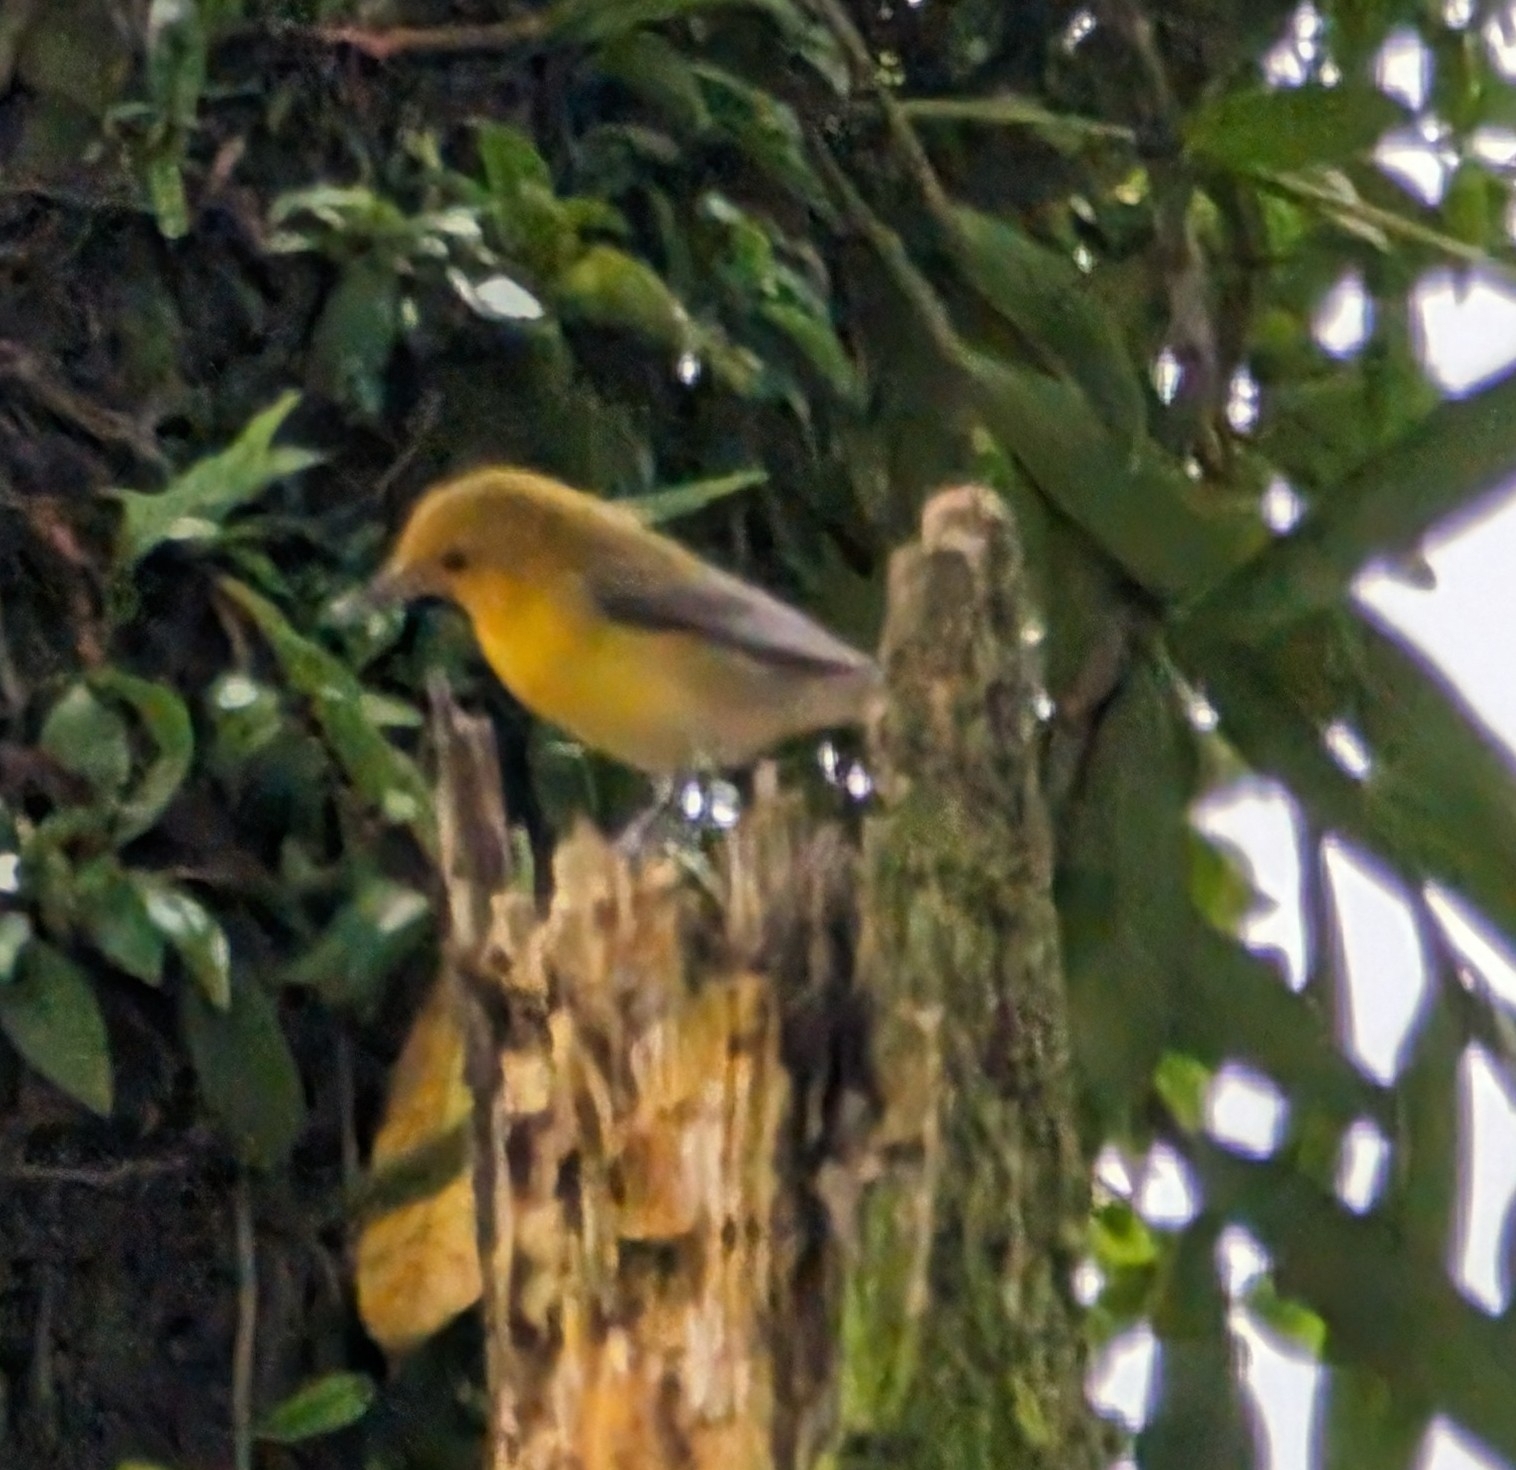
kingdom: Animalia
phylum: Chordata
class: Aves
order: Passeriformes
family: Parulidae
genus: Protonotaria
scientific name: Protonotaria citrea
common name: Prothonotary warbler
